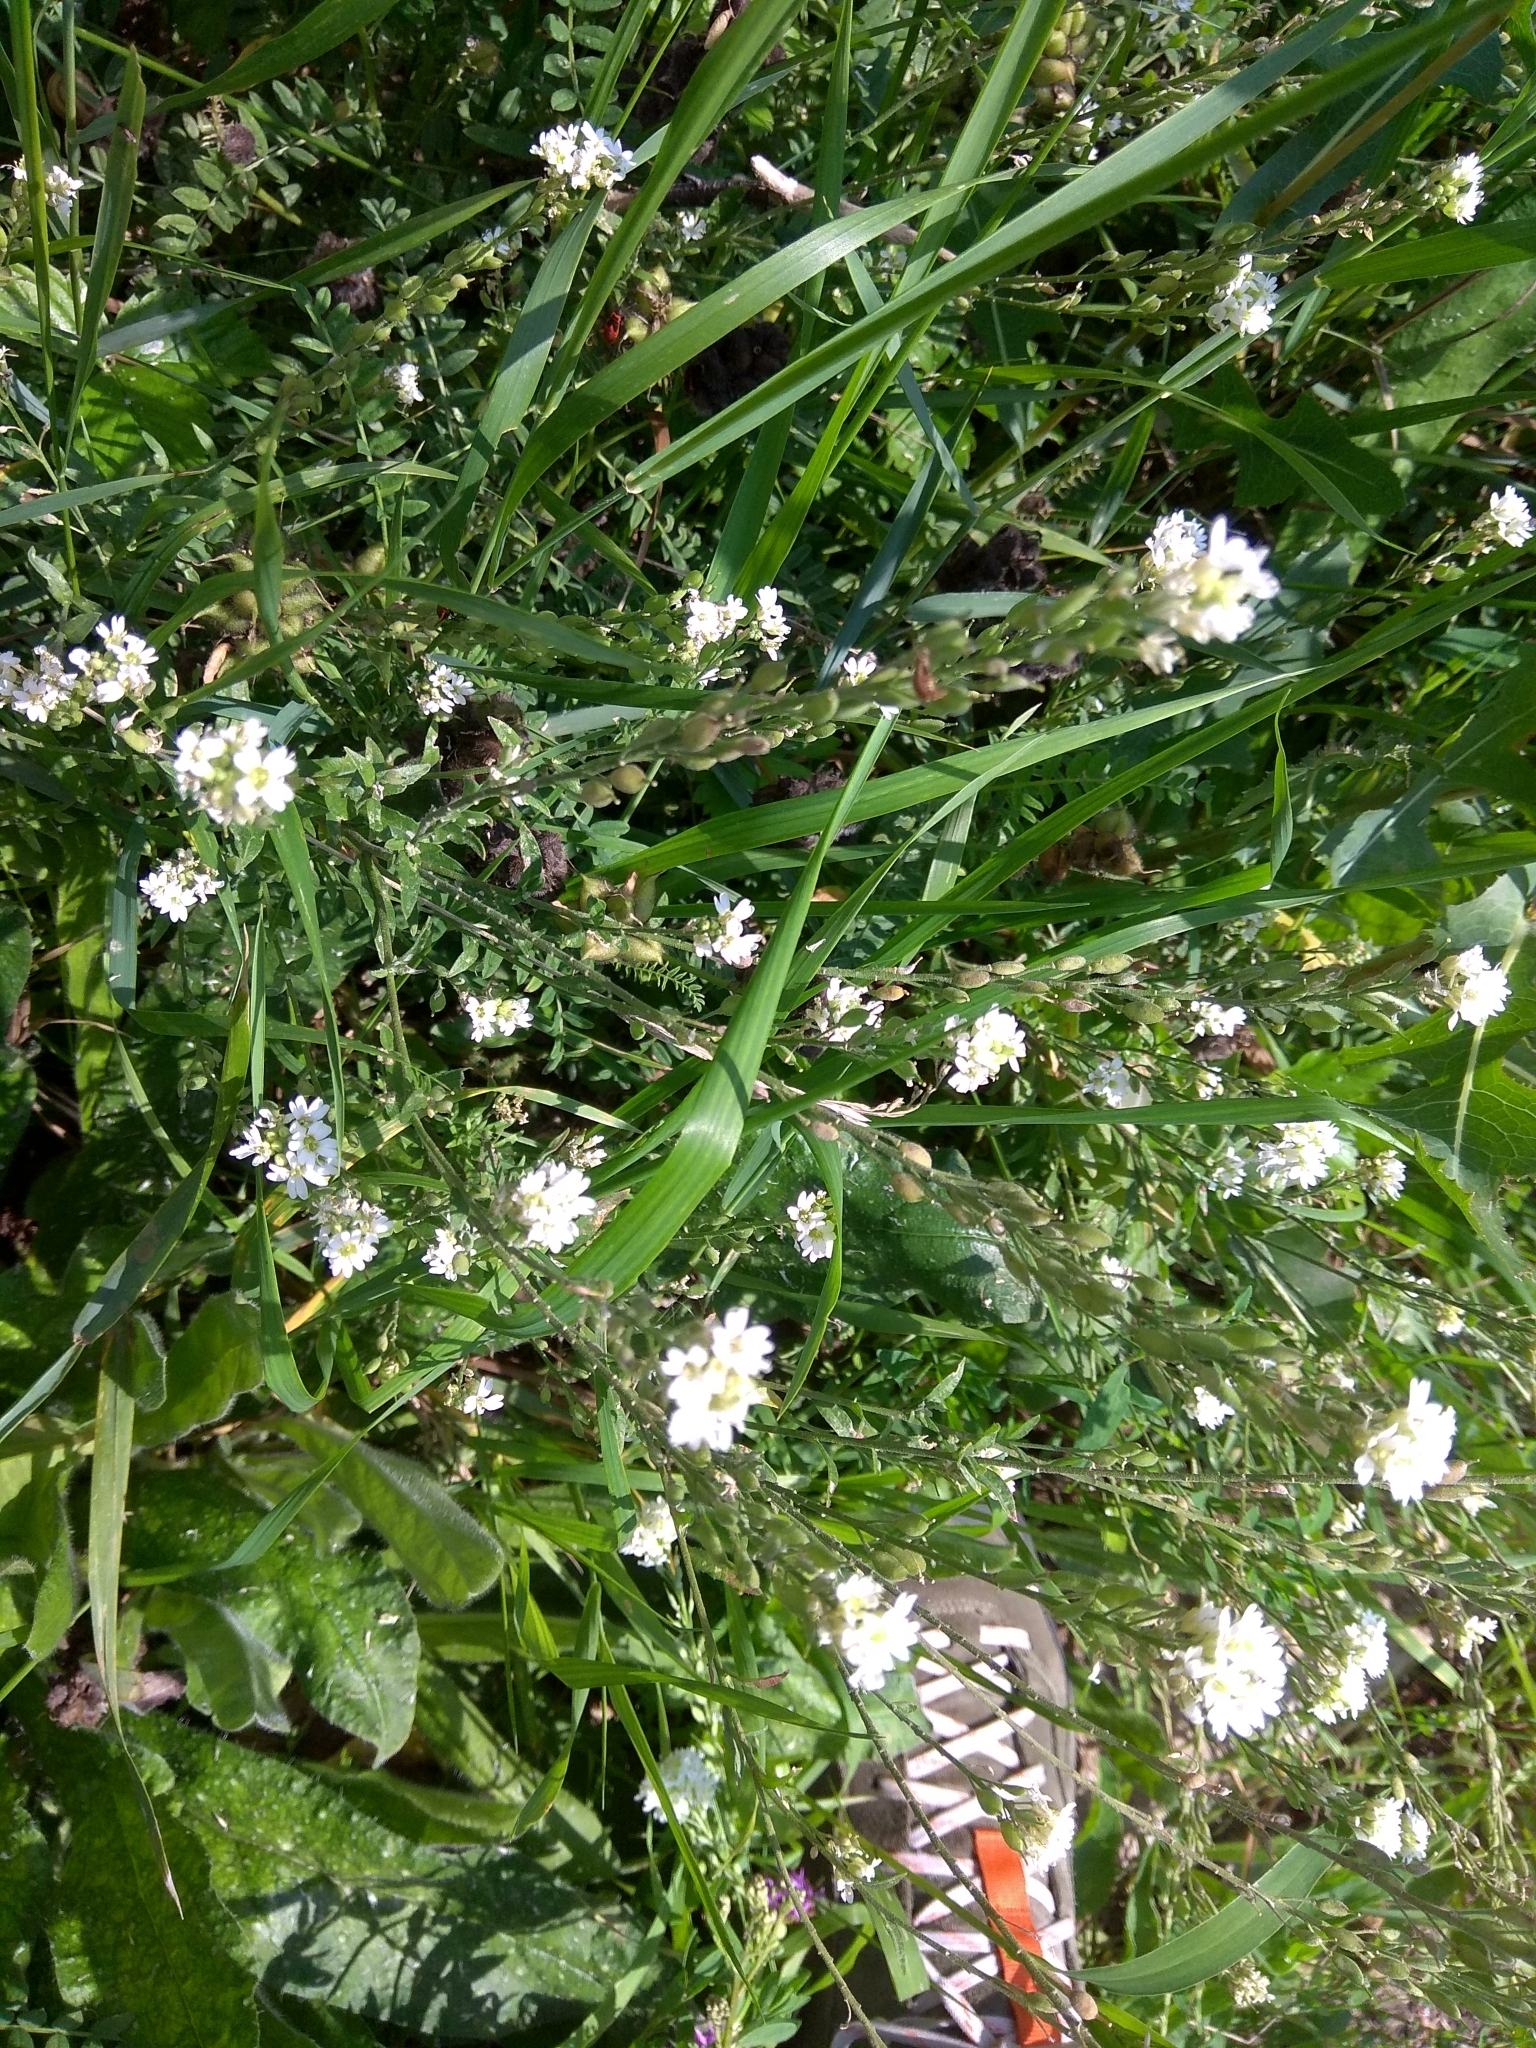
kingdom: Plantae
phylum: Tracheophyta
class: Magnoliopsida
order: Brassicales
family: Brassicaceae
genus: Berteroa
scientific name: Berteroa incana
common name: Hoary alison
